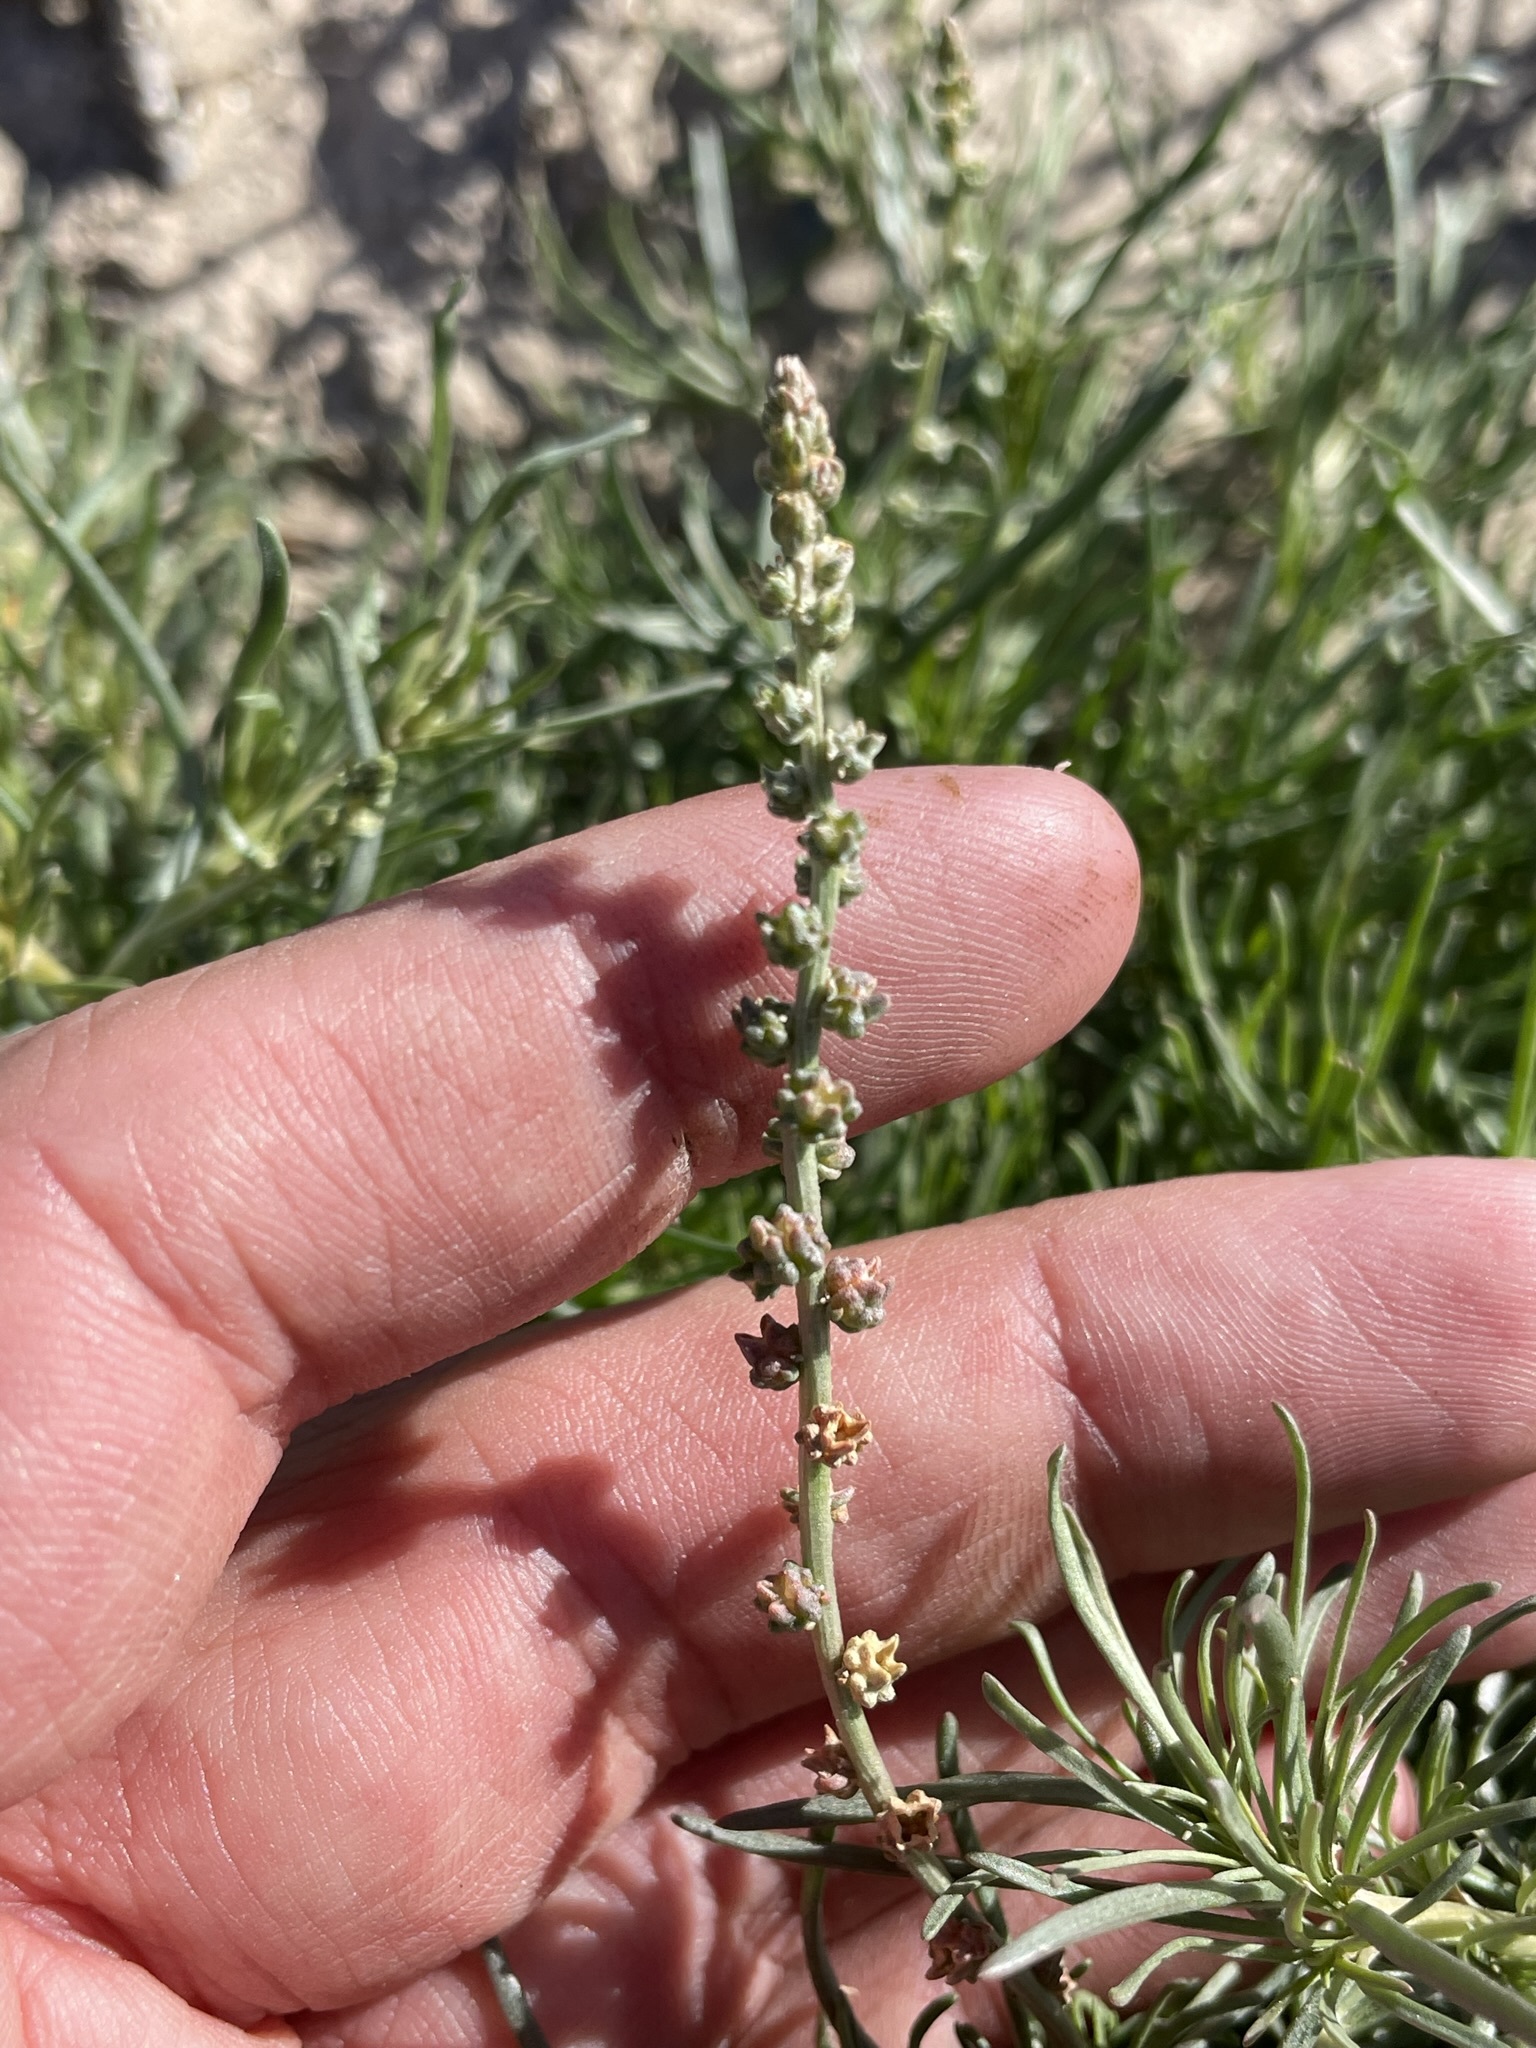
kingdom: Plantae
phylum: Tracheophyta
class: Magnoliopsida
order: Brassicales
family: Resedaceae
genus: Oligomeris
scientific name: Oligomeris linifolia
